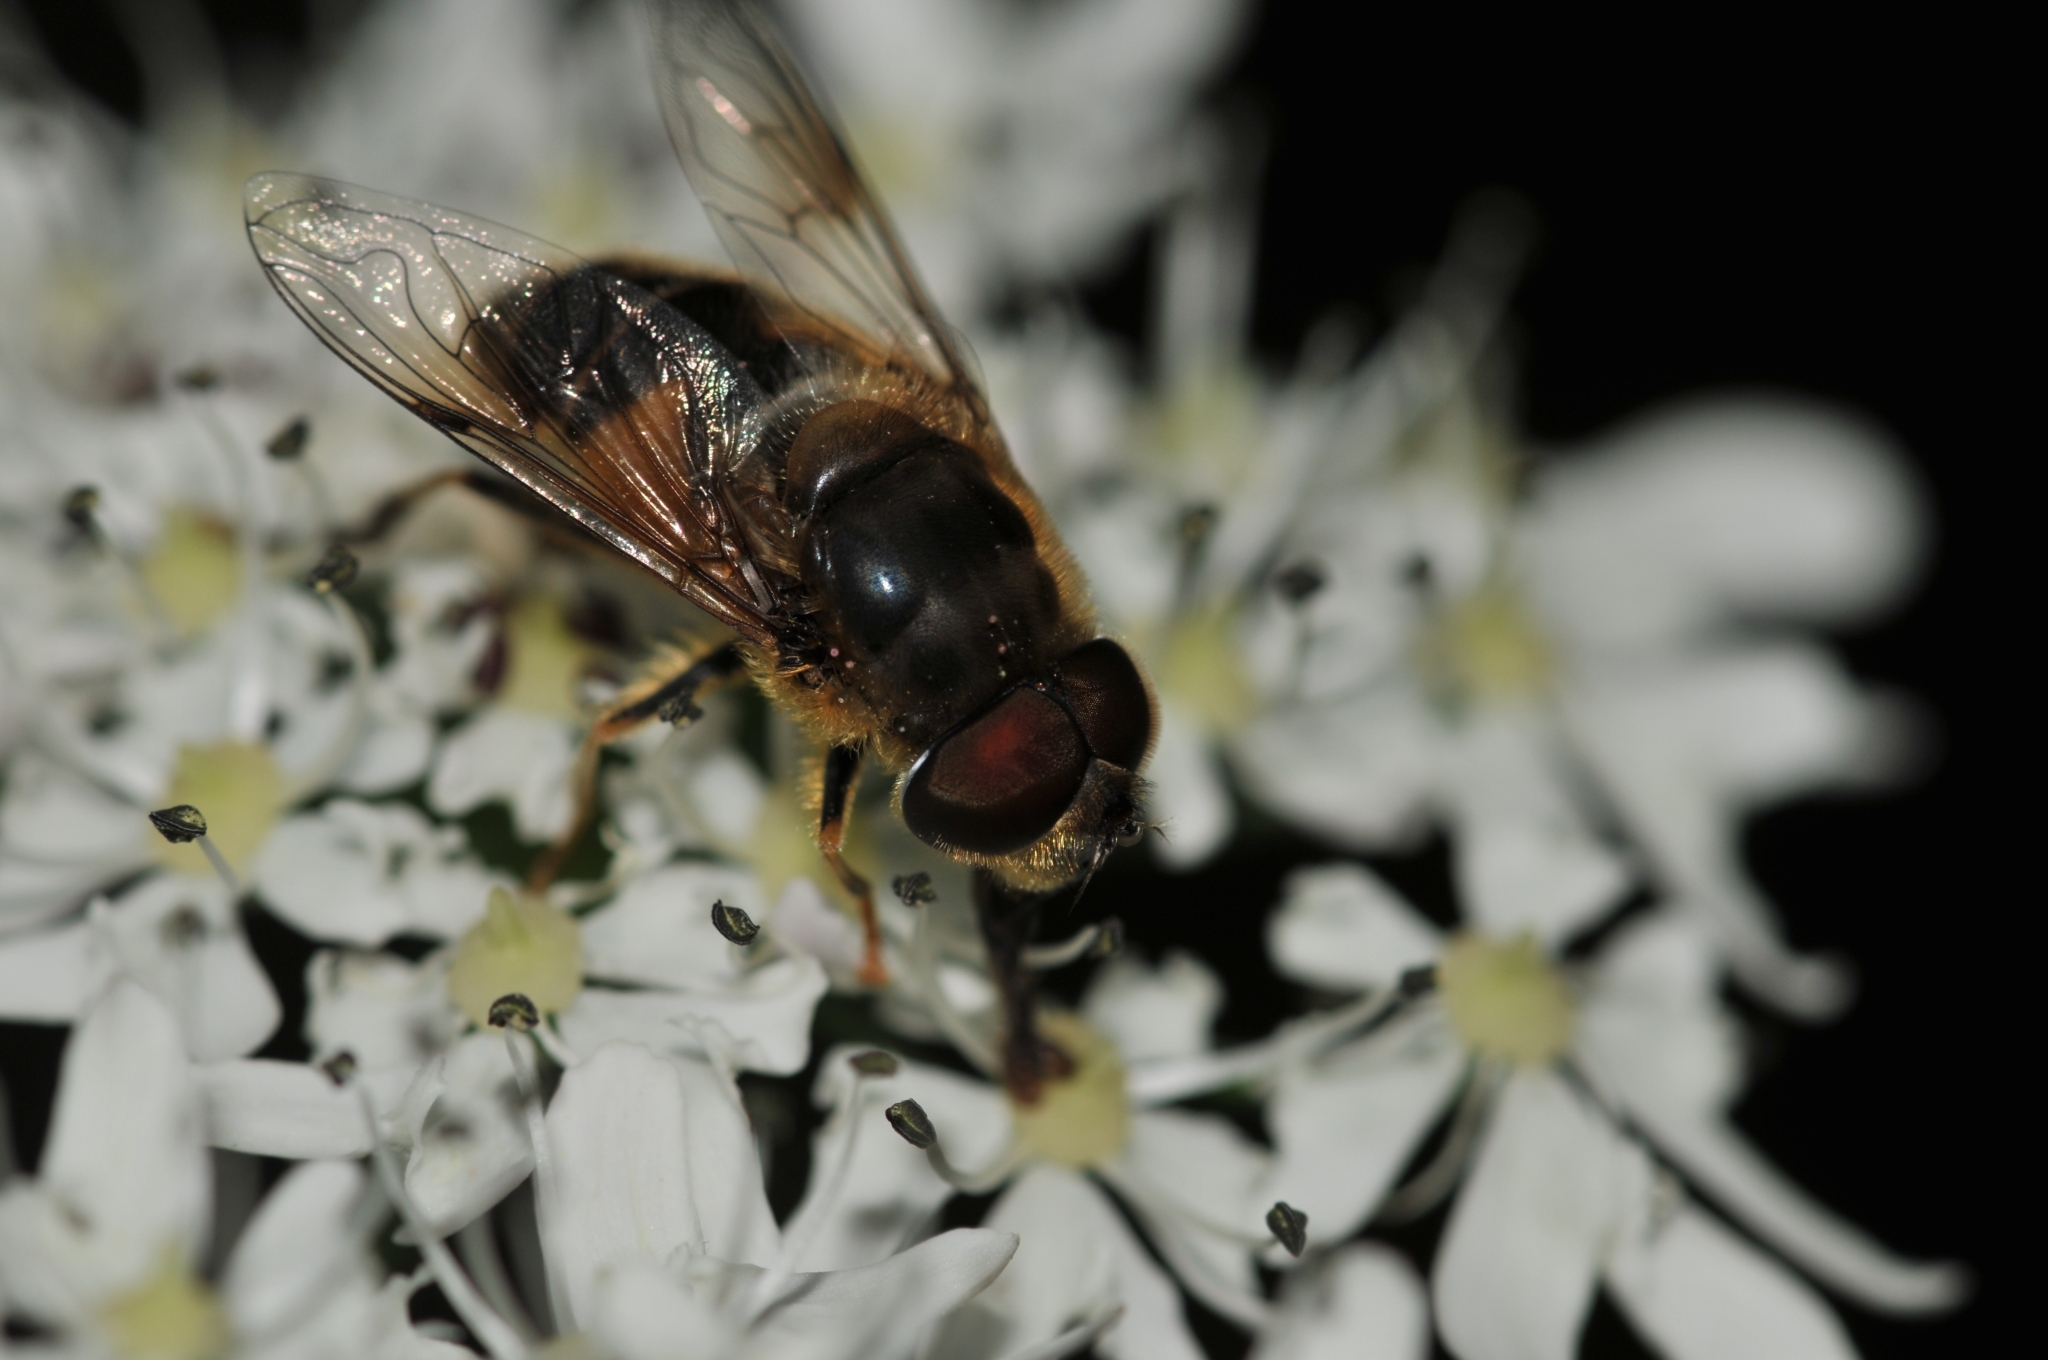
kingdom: Animalia
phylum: Arthropoda
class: Insecta
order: Diptera
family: Syrphidae
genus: Eristalis
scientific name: Eristalis pertinax
